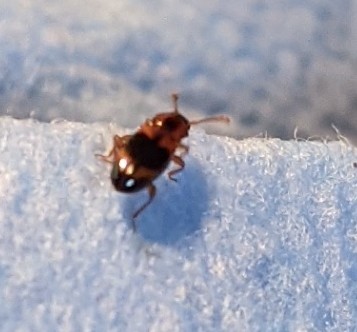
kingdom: Animalia
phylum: Arthropoda
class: Insecta
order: Coleoptera
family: Endomychidae
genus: Phymaphora
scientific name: Phymaphora pulchella
